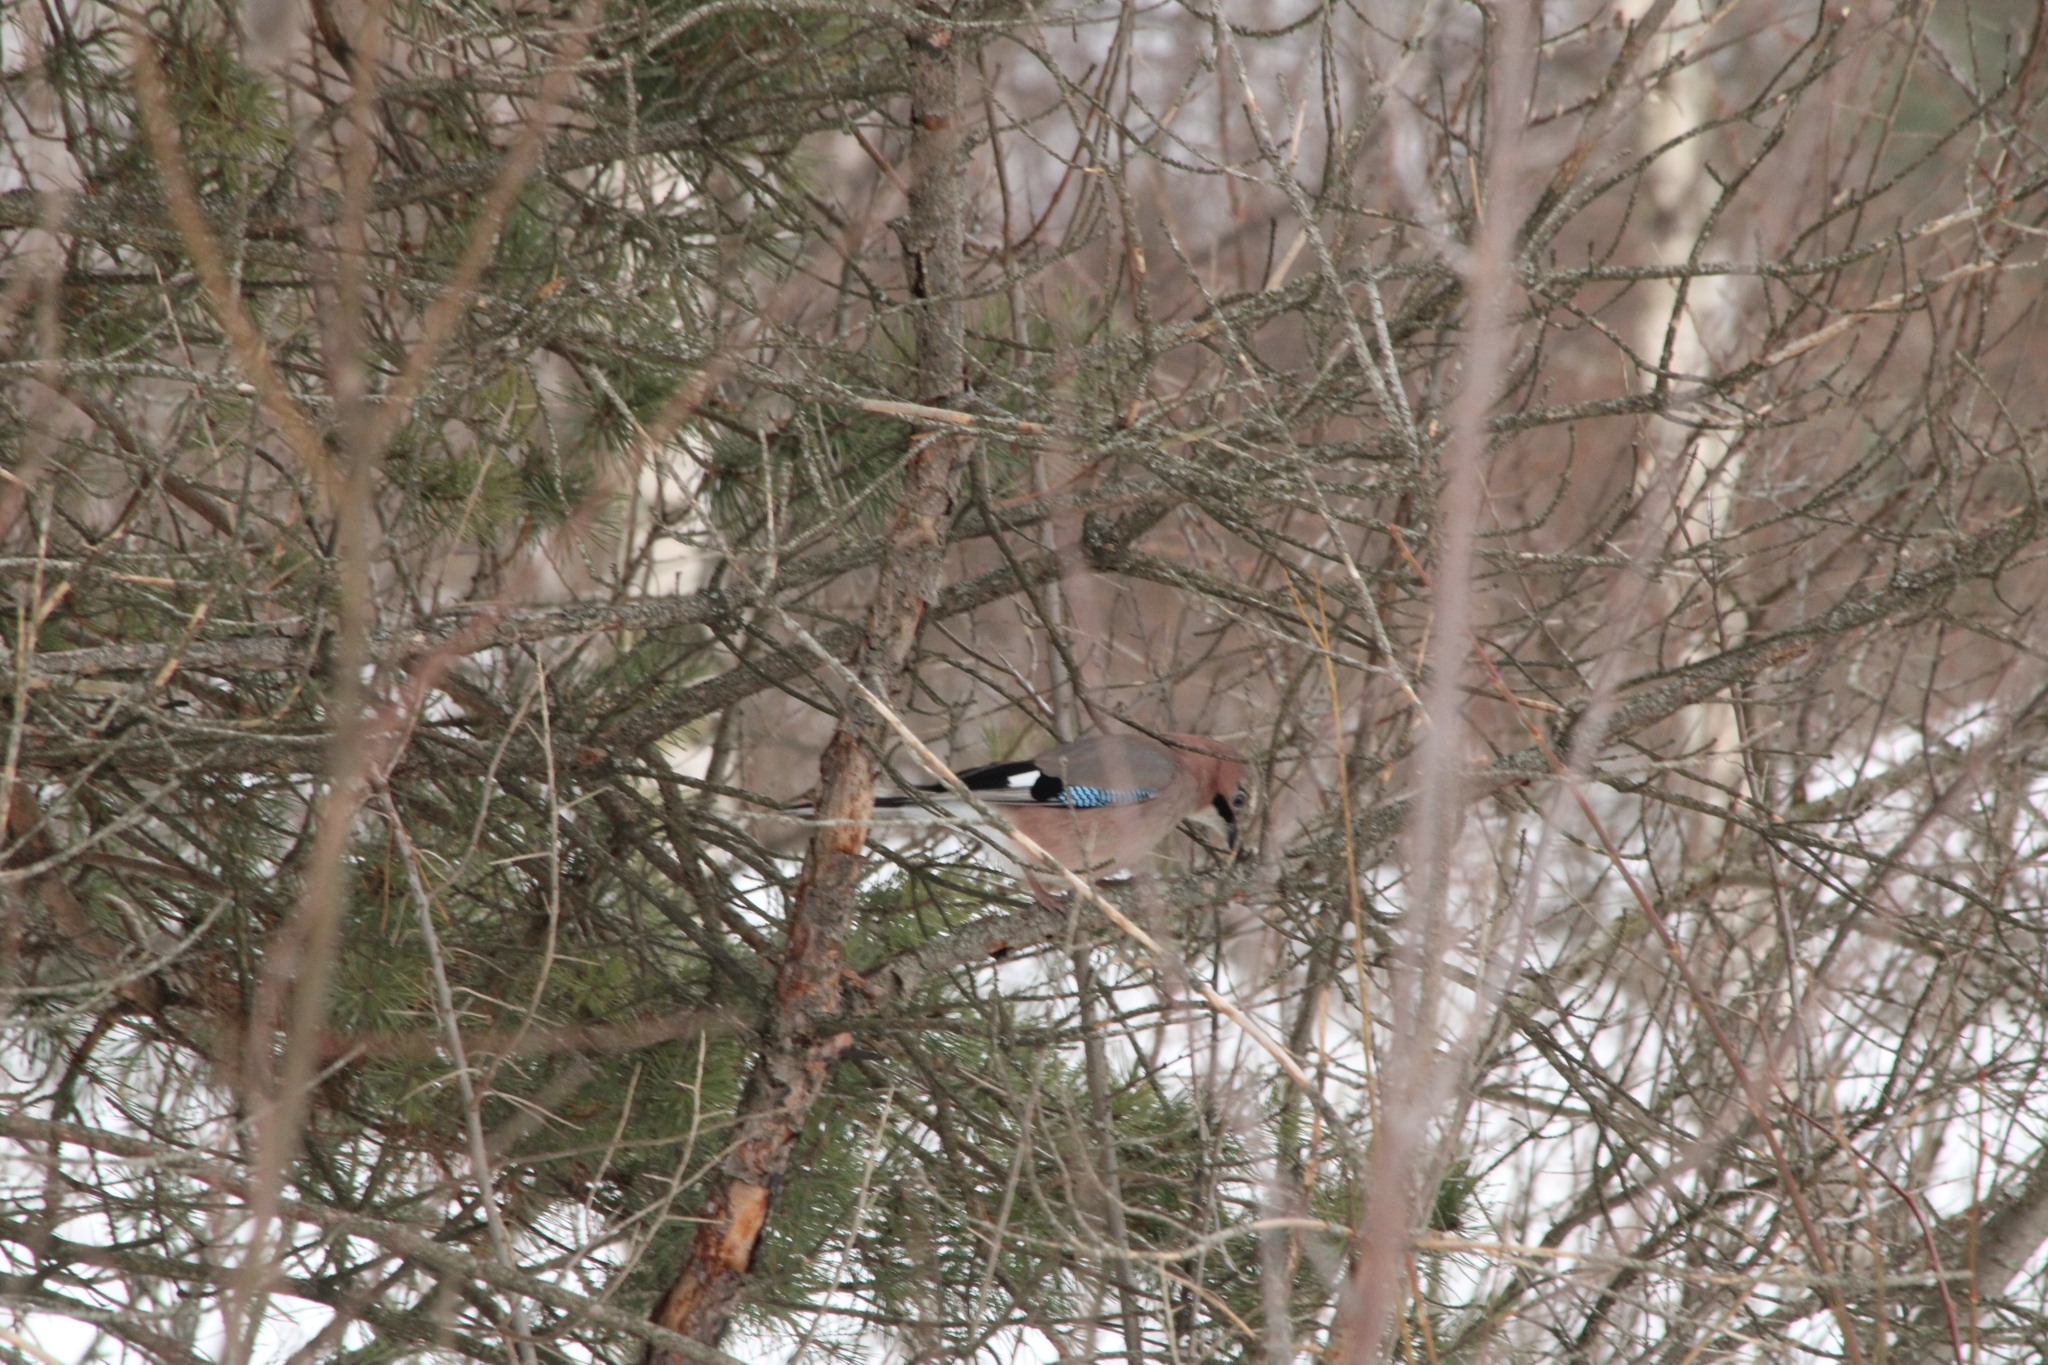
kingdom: Animalia
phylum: Chordata
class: Aves
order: Passeriformes
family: Corvidae
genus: Garrulus
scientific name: Garrulus glandarius
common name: Eurasian jay
